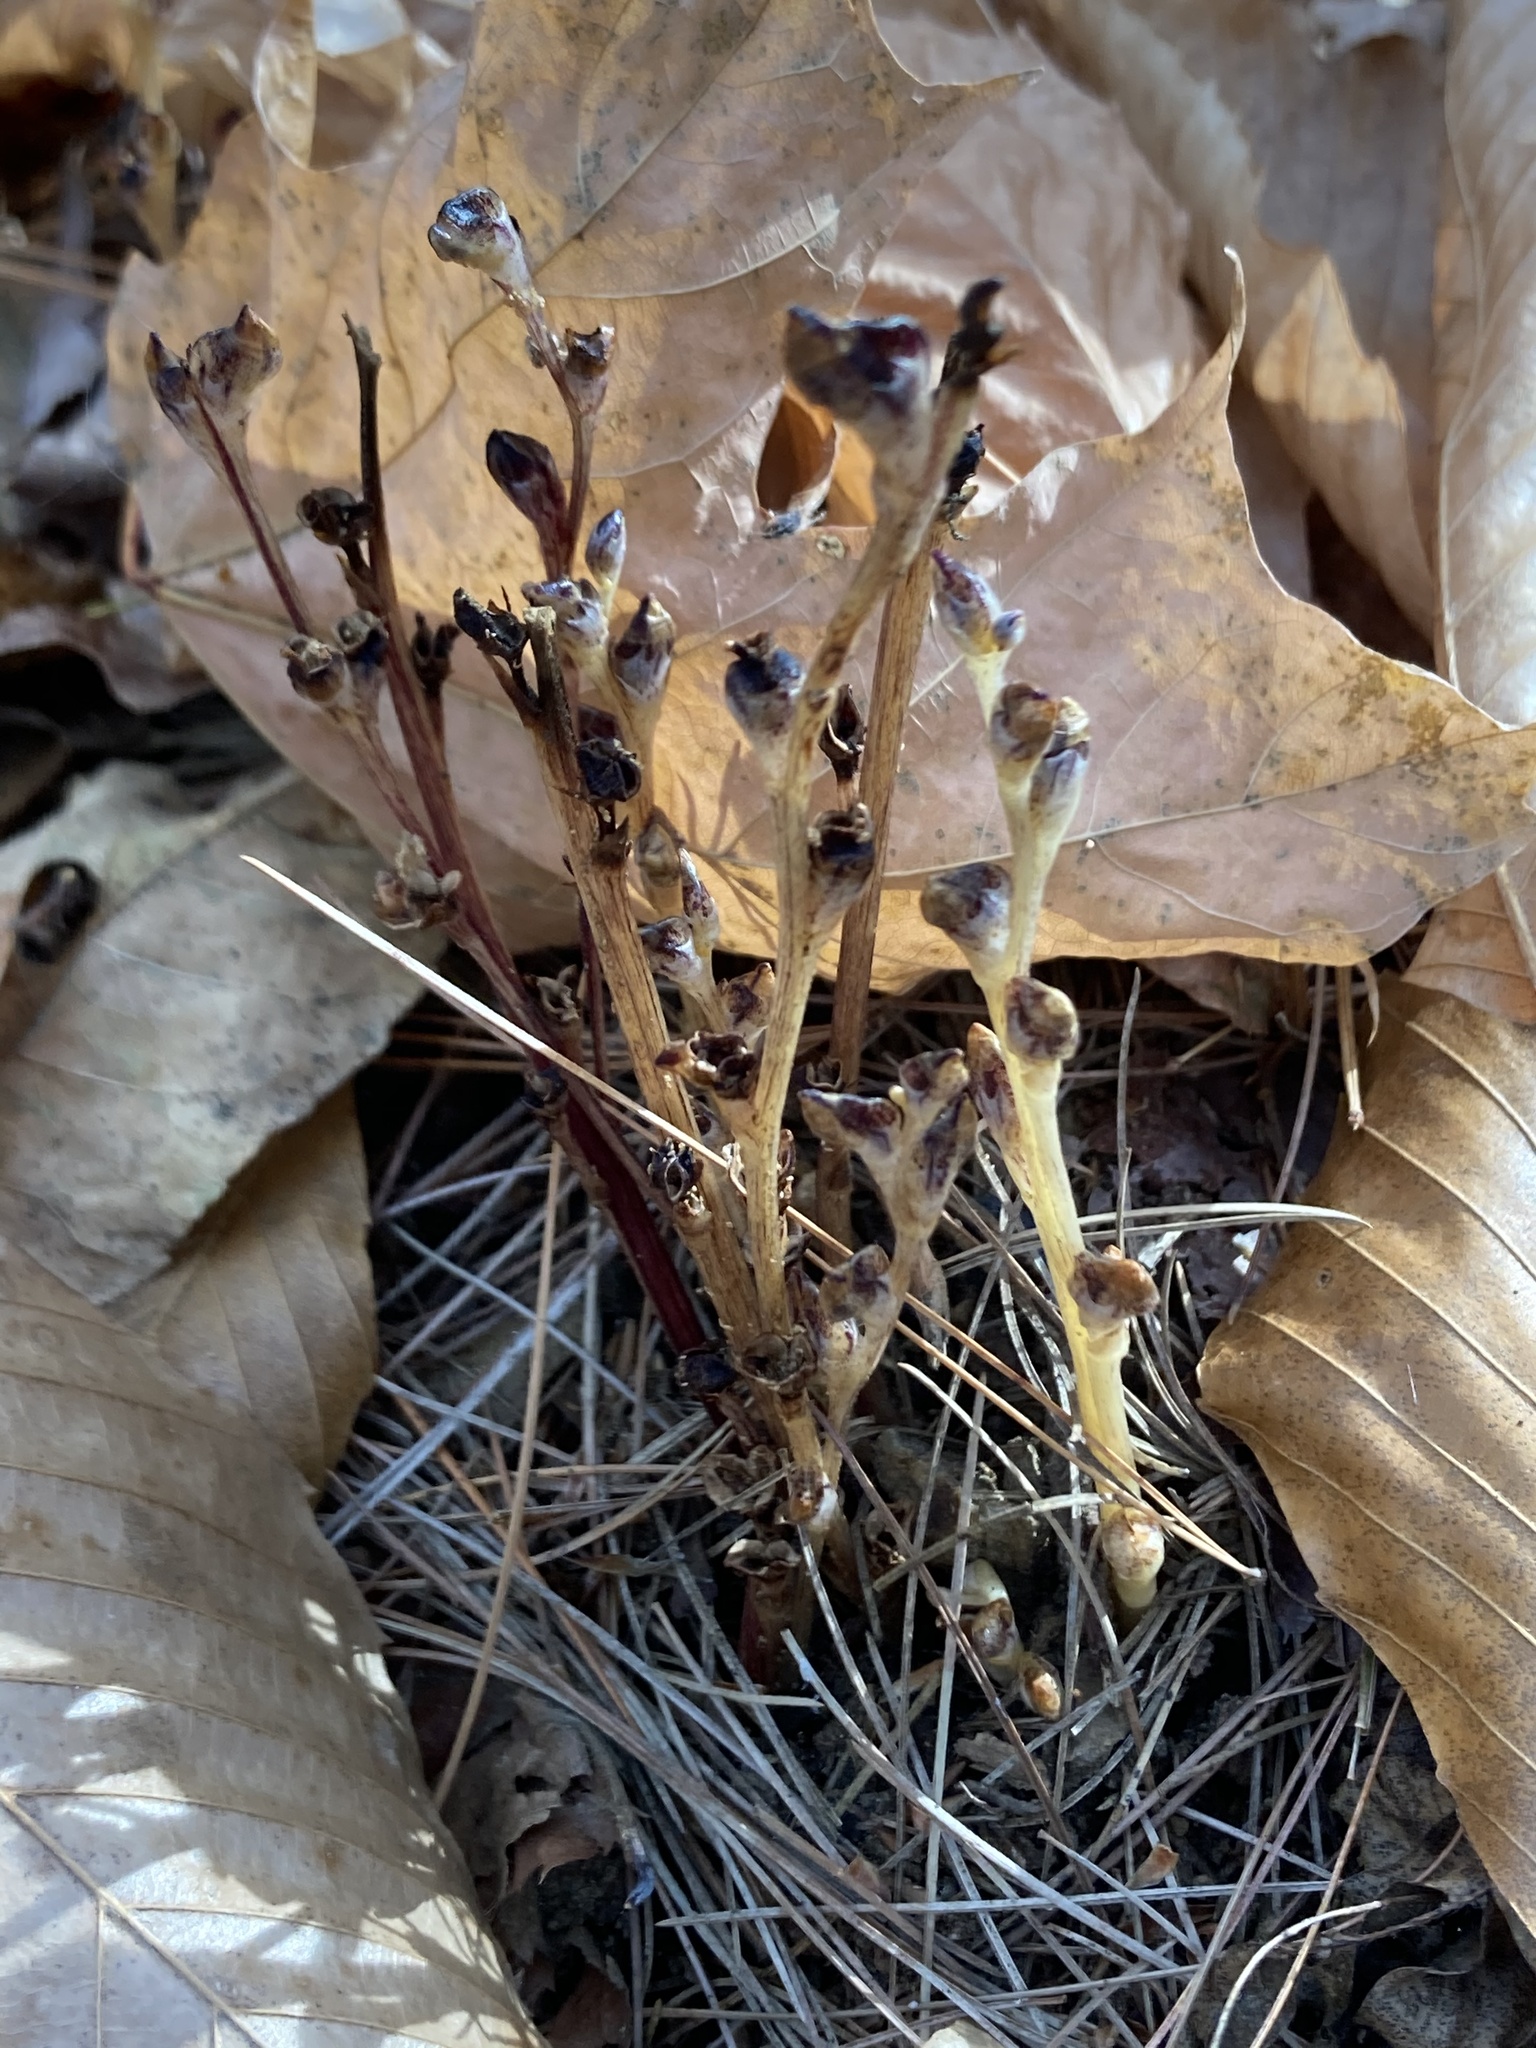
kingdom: Plantae
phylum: Tracheophyta
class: Magnoliopsida
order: Lamiales
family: Orobanchaceae
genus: Epifagus
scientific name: Epifagus virginiana
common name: Beechdrops
